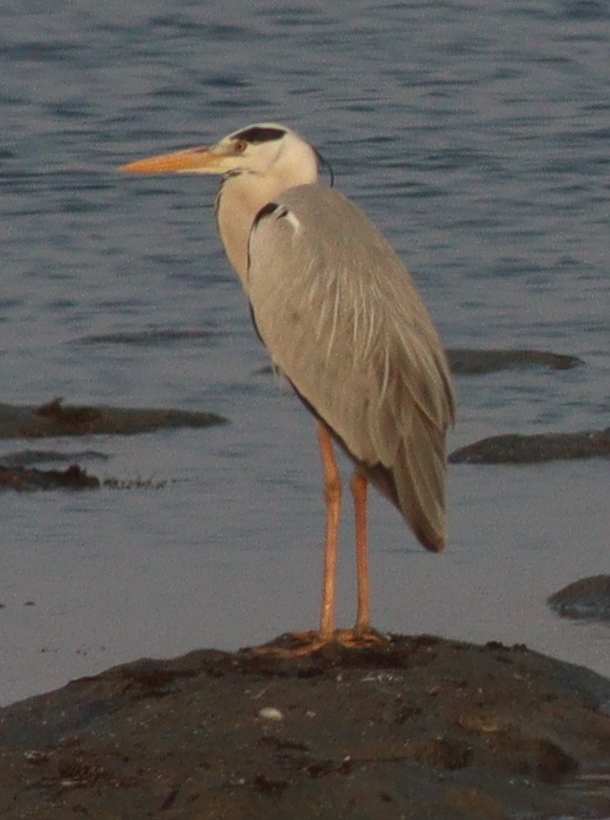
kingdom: Animalia
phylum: Chordata
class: Aves
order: Pelecaniformes
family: Ardeidae
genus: Ardea
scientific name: Ardea cinerea
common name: Grey heron
